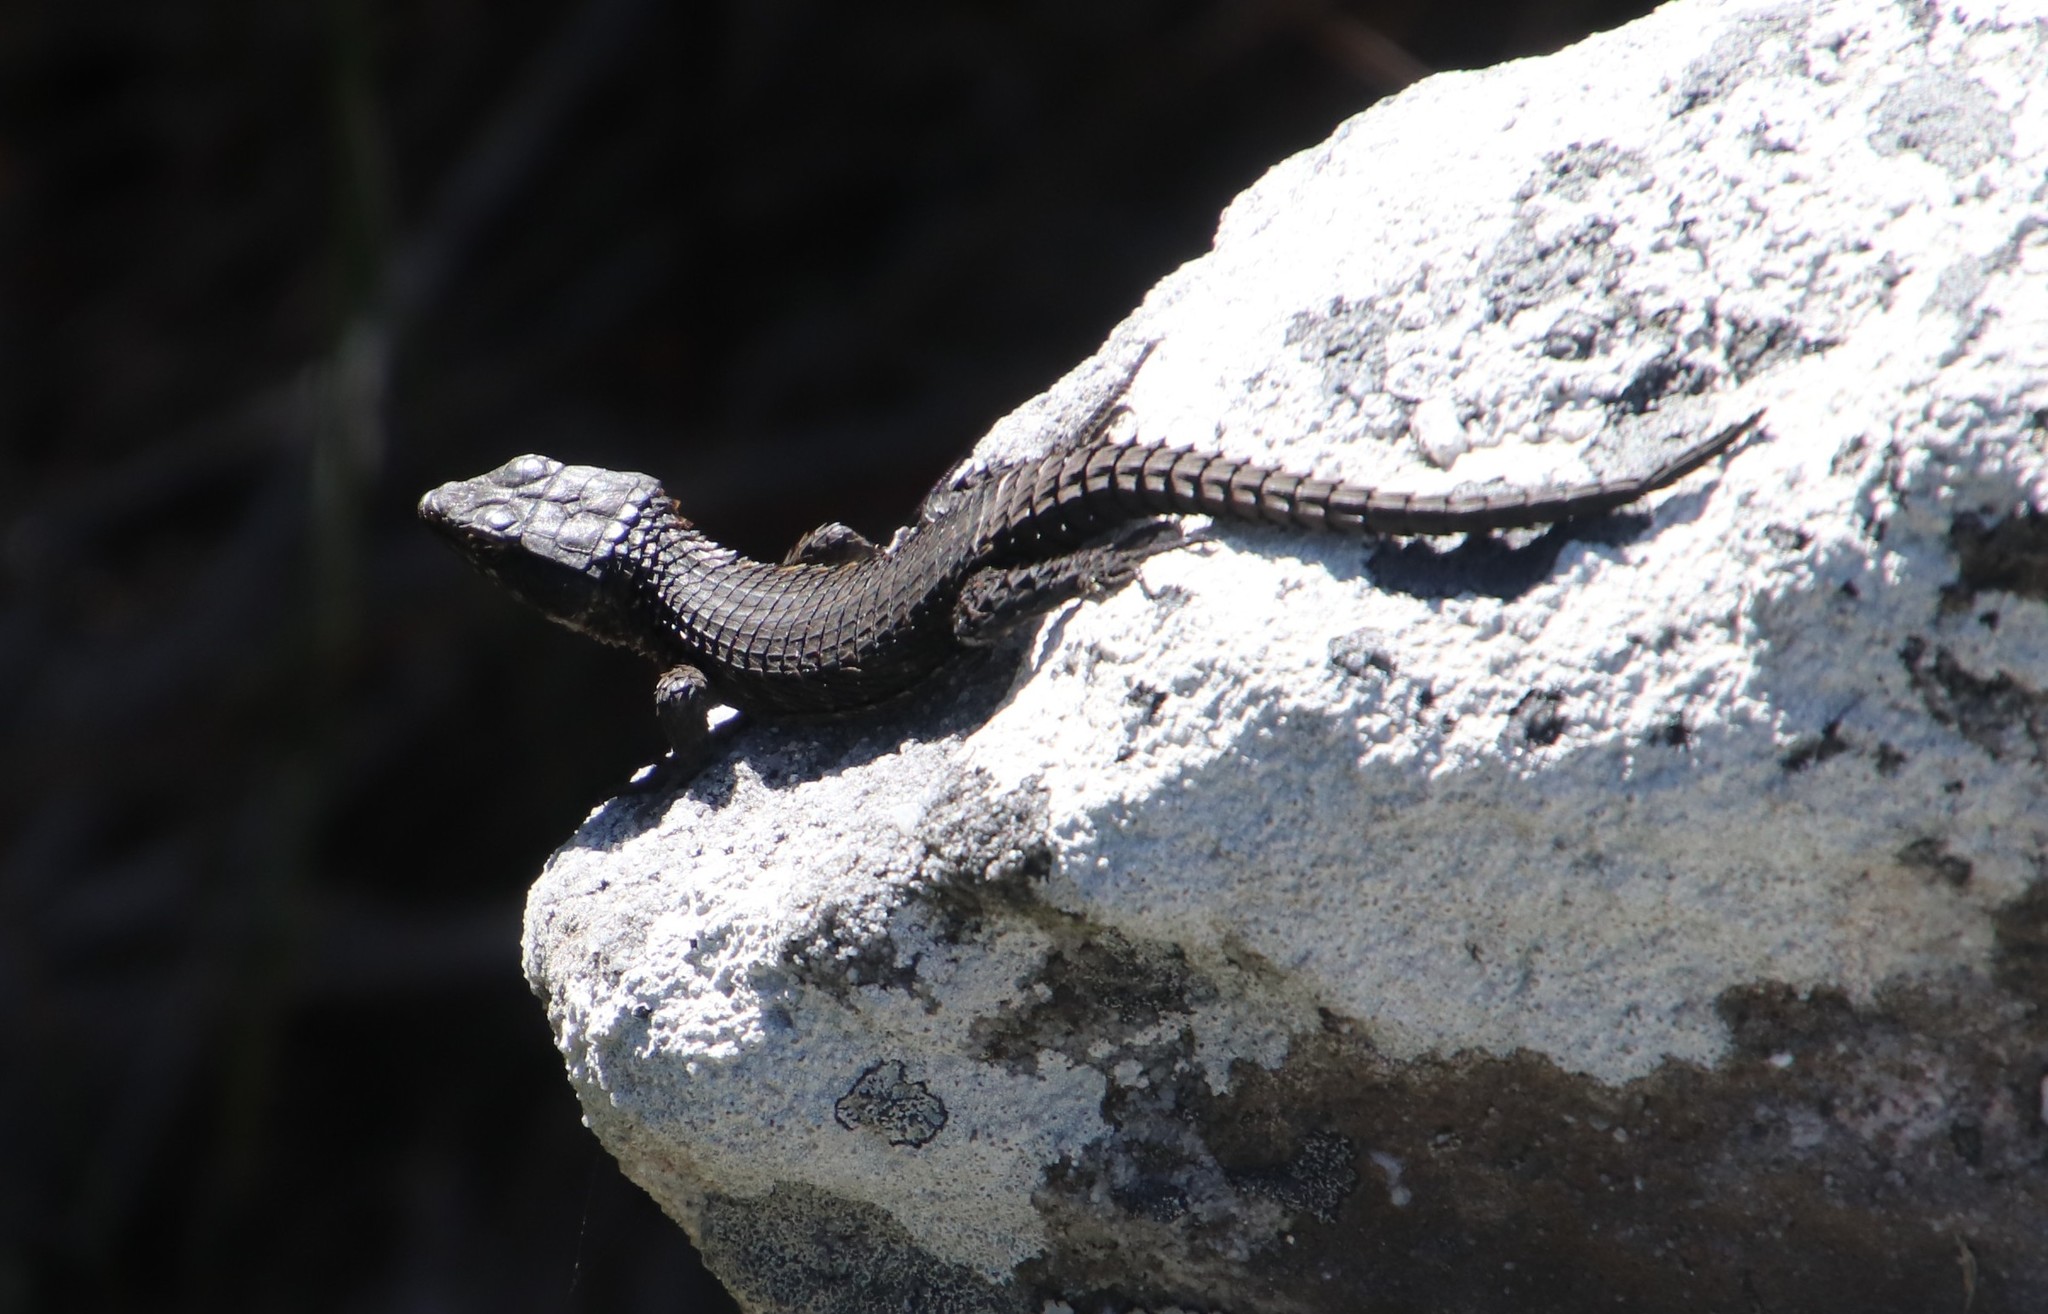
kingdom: Animalia
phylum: Chordata
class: Squamata
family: Cordylidae
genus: Cordylus
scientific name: Cordylus niger
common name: Black girdled lizard
